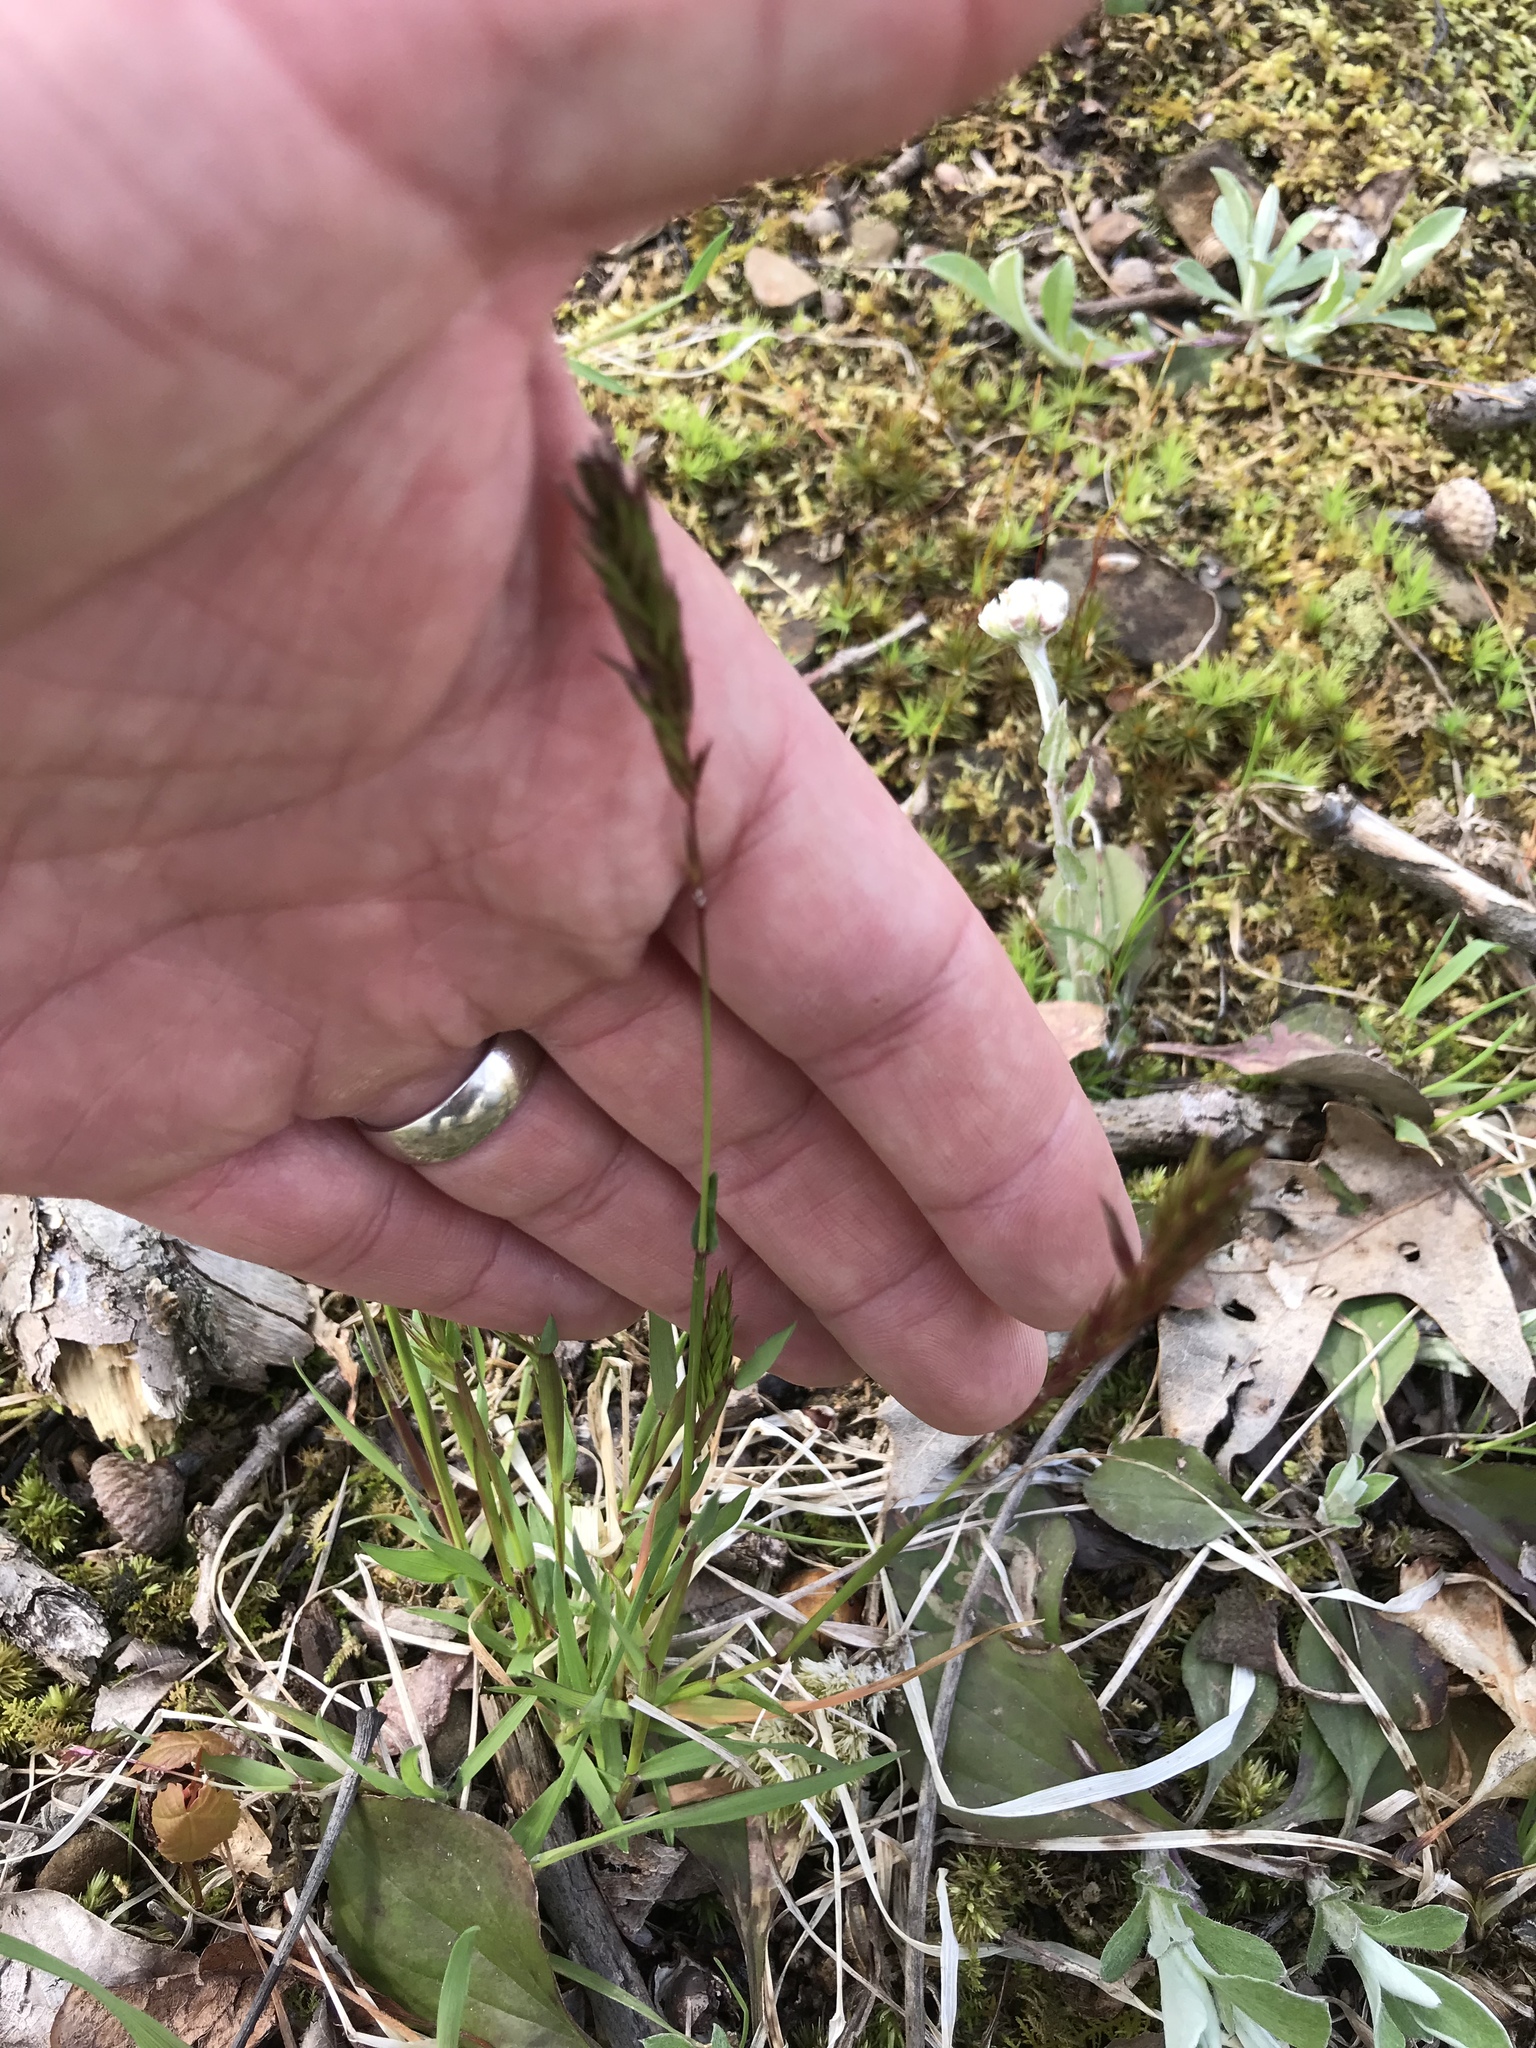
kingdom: Plantae
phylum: Tracheophyta
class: Liliopsida
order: Poales
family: Poaceae
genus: Anthoxanthum
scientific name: Anthoxanthum odoratum
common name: Sweet vernalgrass
